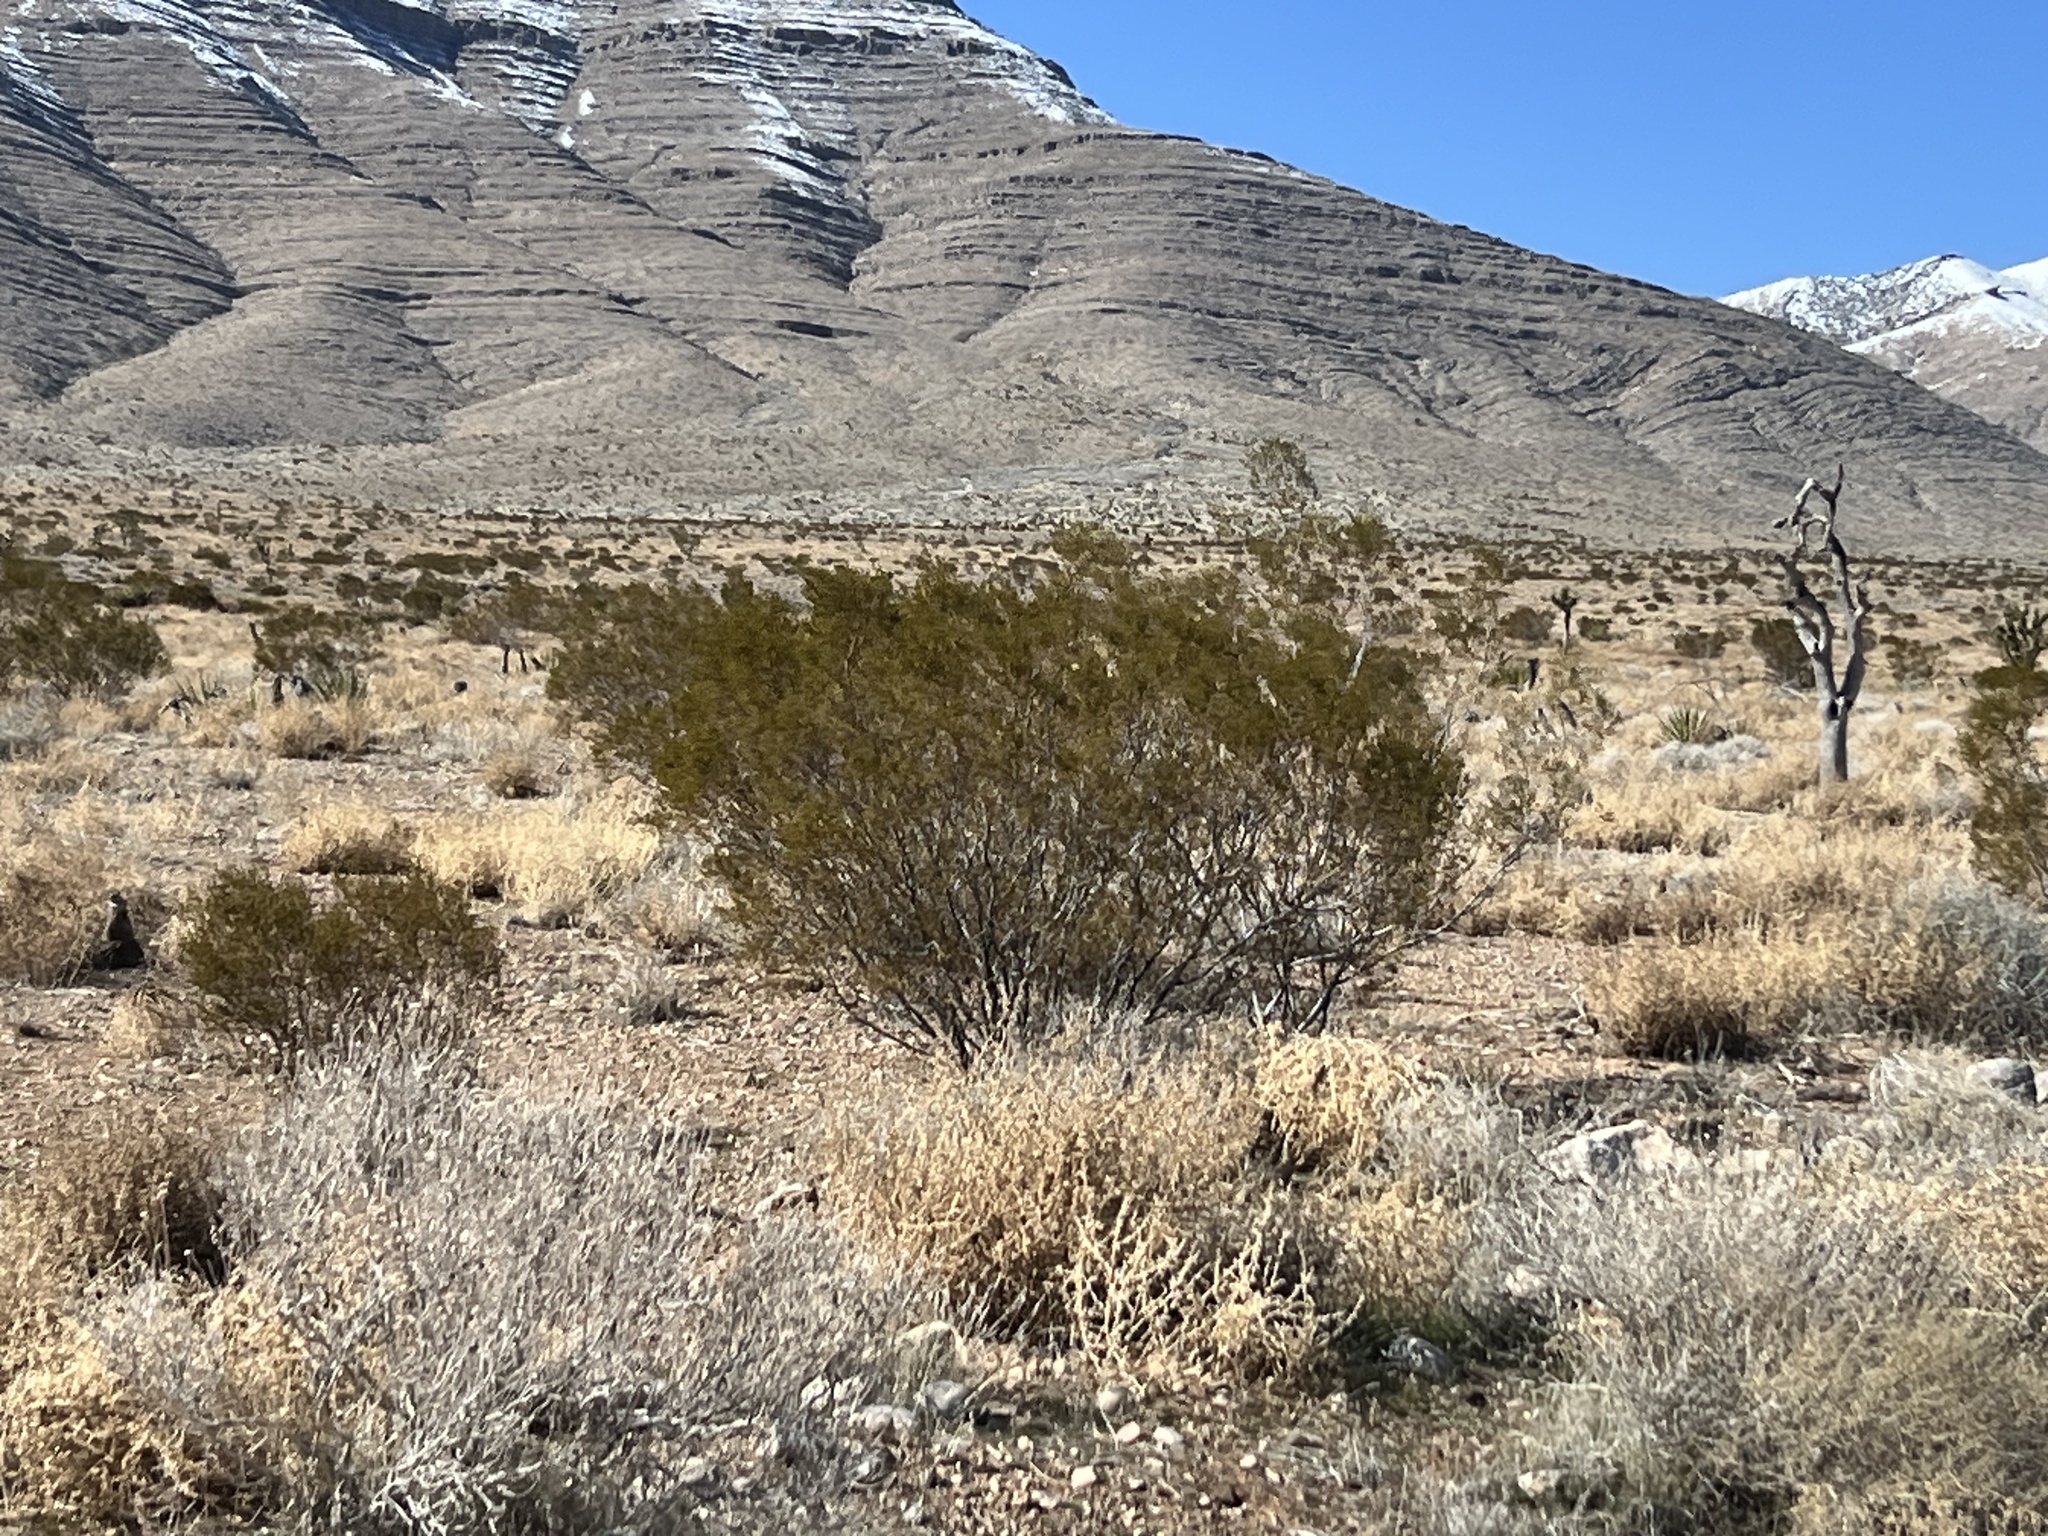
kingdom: Plantae
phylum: Tracheophyta
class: Magnoliopsida
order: Zygophyllales
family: Zygophyllaceae
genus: Larrea
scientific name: Larrea tridentata
